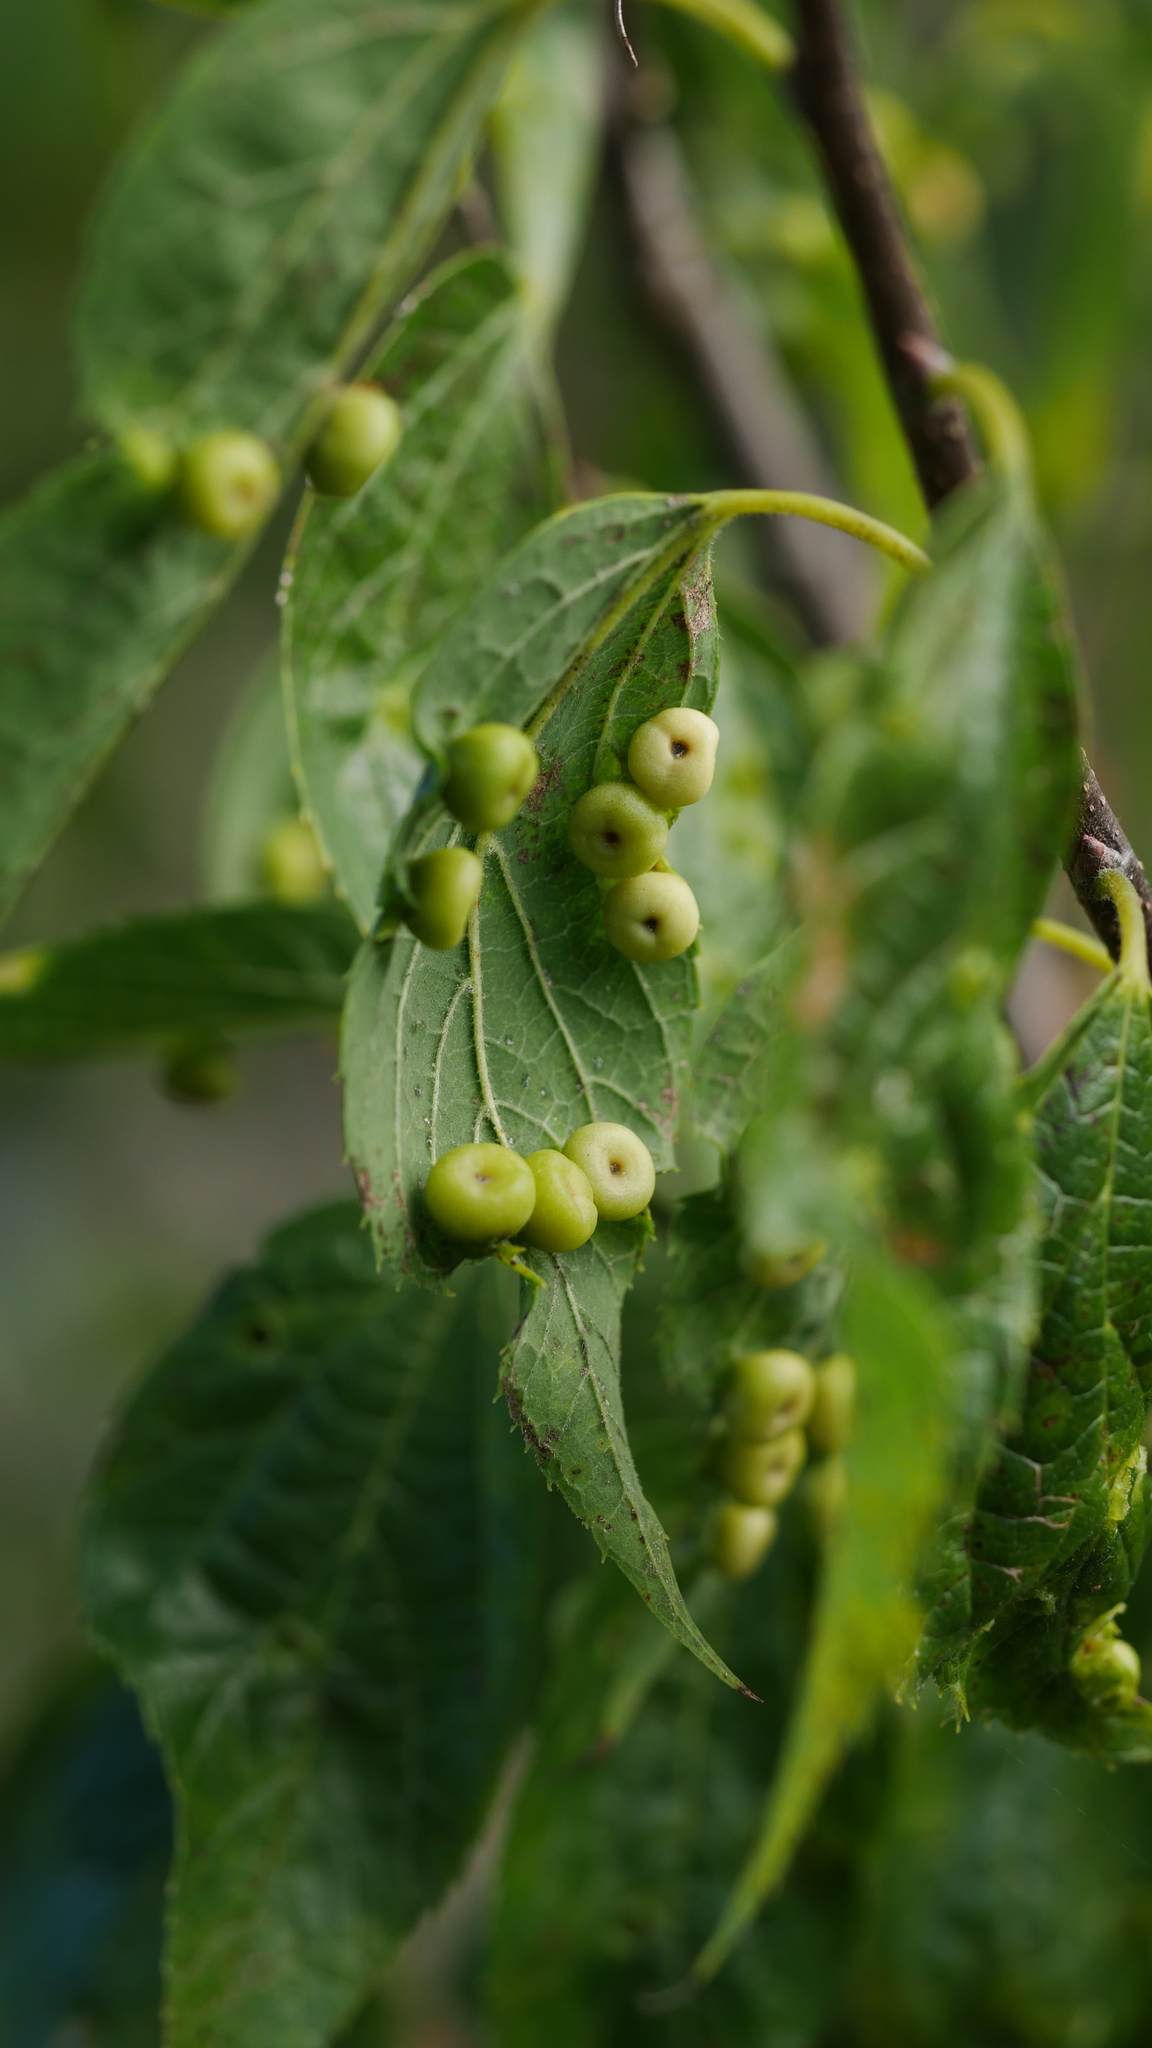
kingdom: Animalia
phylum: Arthropoda
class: Insecta
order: Hemiptera
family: Aphalaridae
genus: Pachypsylla
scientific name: Pachypsylla celtidismamma
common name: Hackberry nipplegall psyllid
